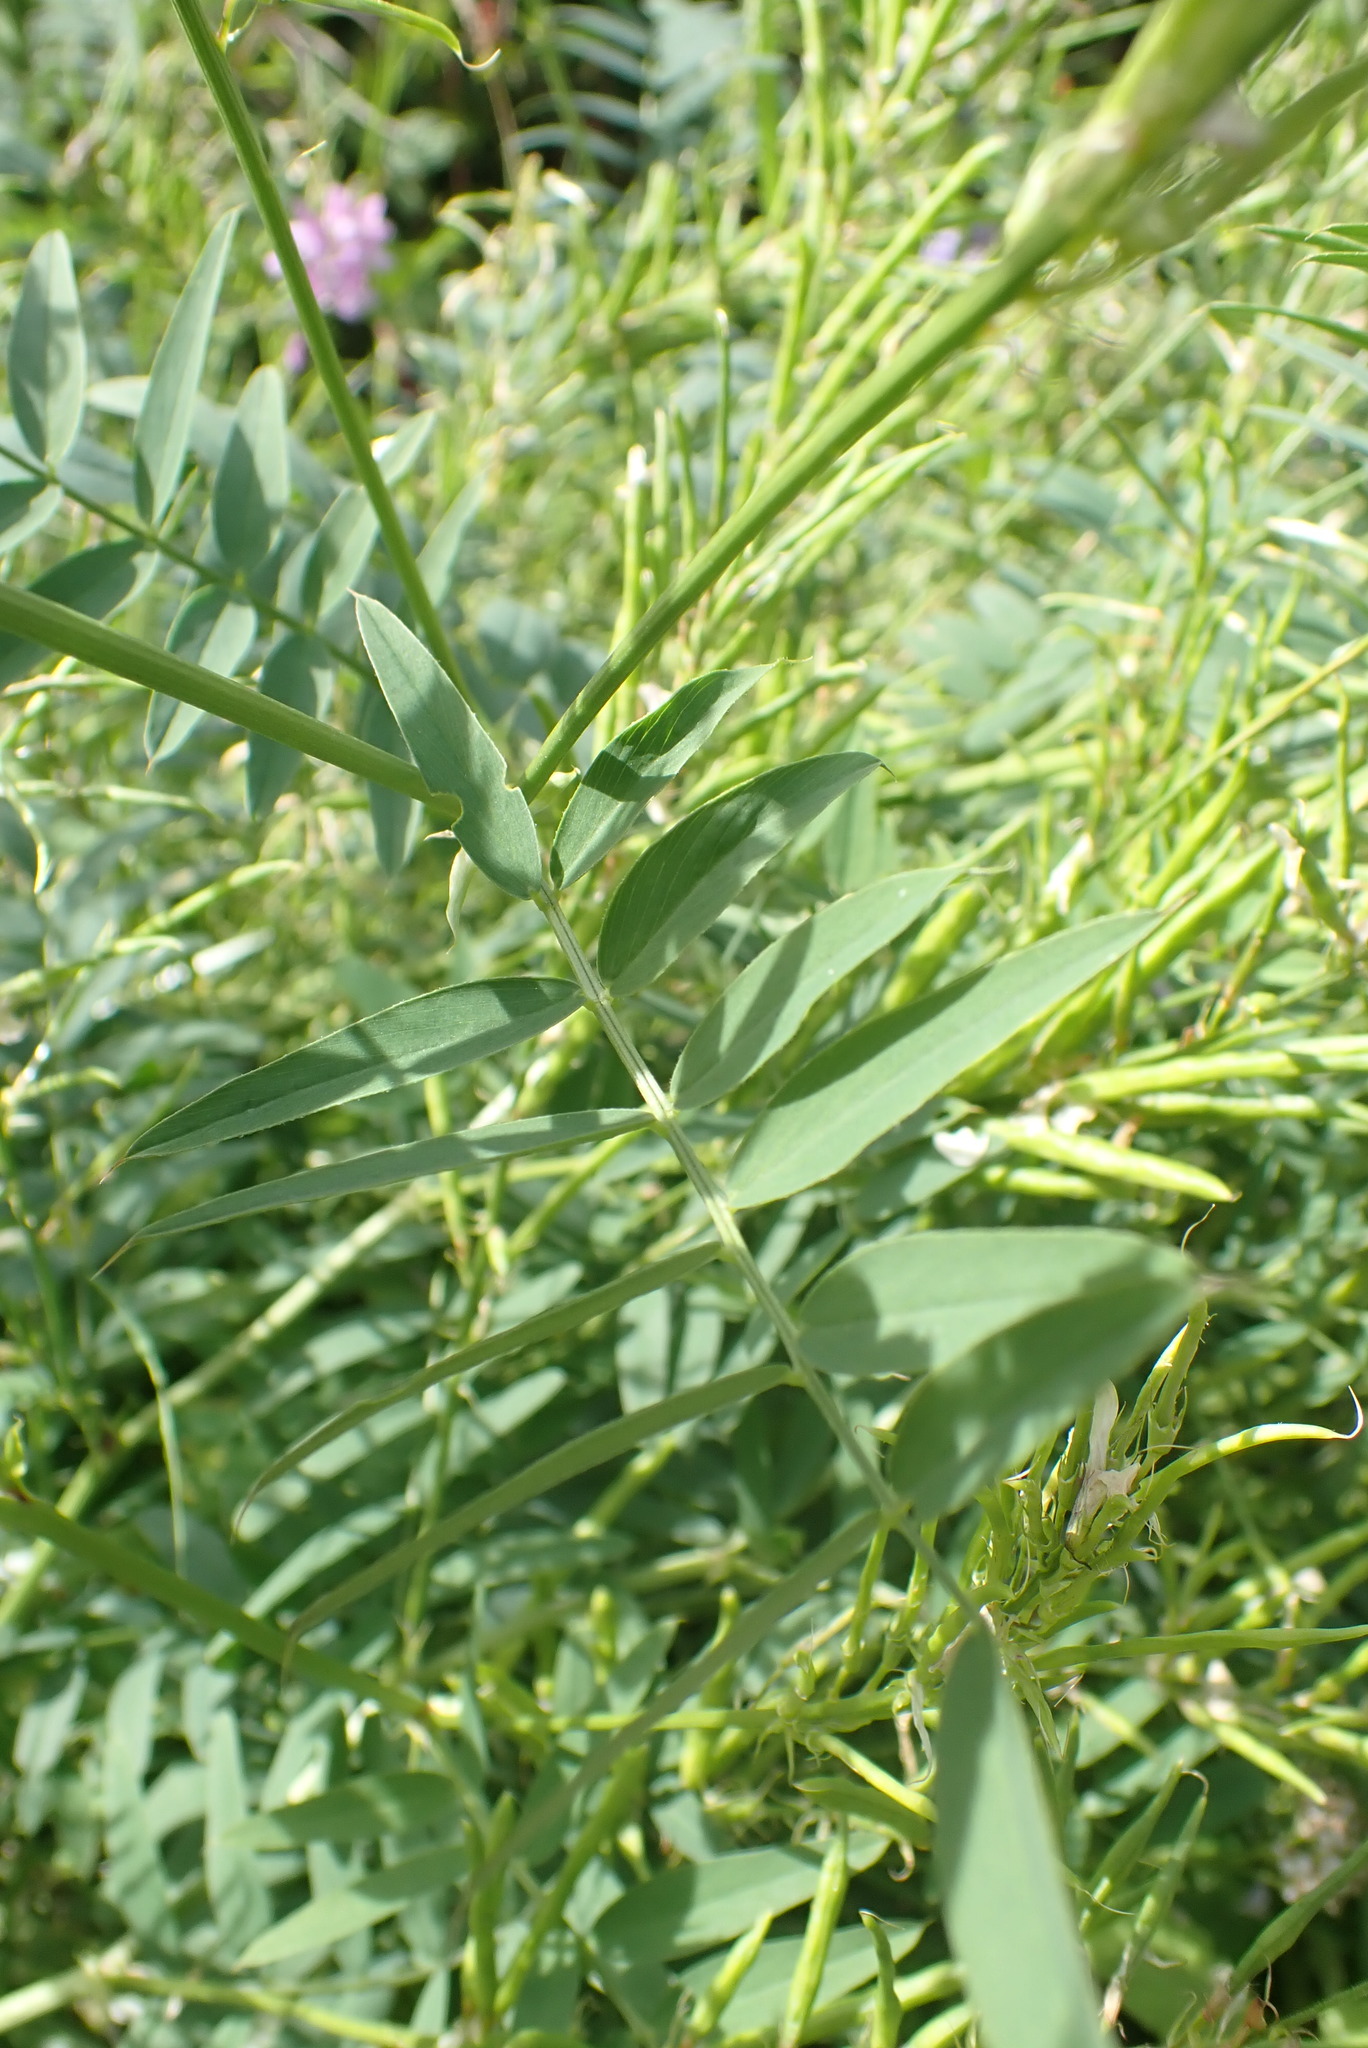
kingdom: Plantae
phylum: Tracheophyta
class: Magnoliopsida
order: Fabales
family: Fabaceae
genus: Galega
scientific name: Galega officinalis
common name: Goat's-rue
